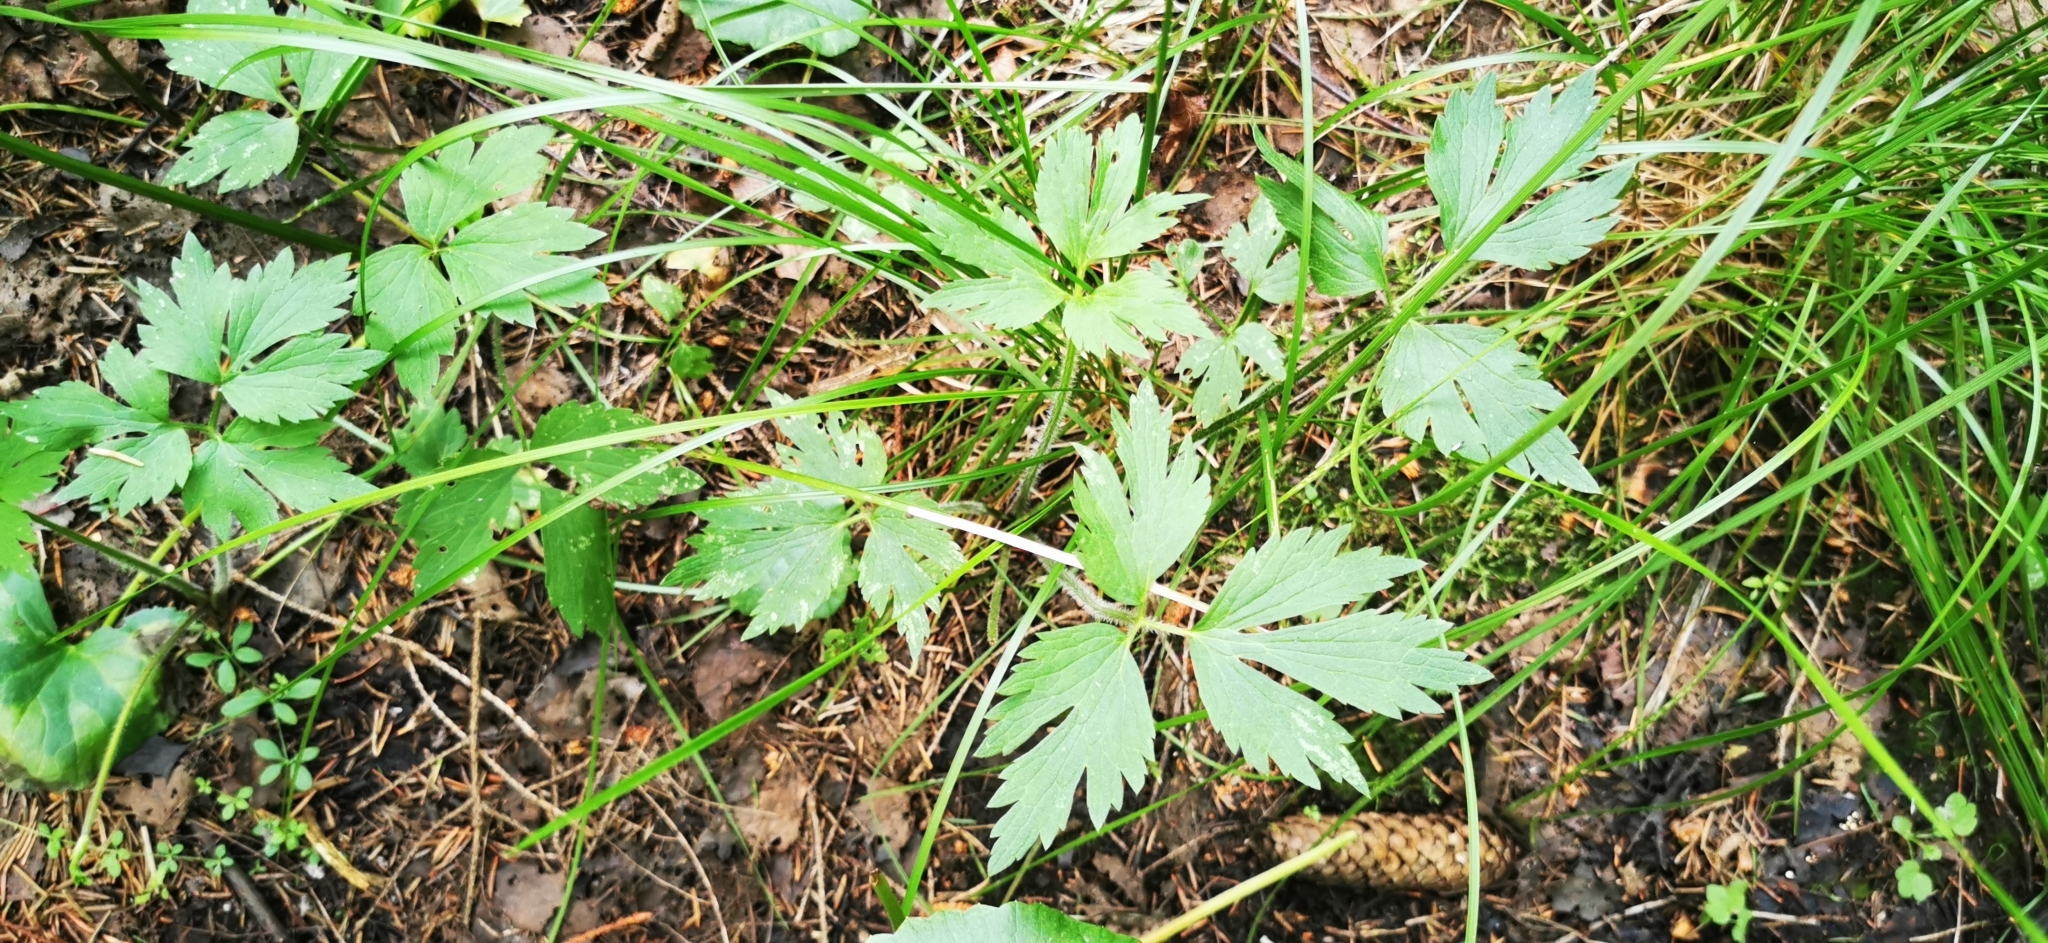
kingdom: Plantae
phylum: Tracheophyta
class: Magnoliopsida
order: Ranunculales
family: Ranunculaceae
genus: Ranunculus
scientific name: Ranunculus repens
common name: Creeping buttercup
